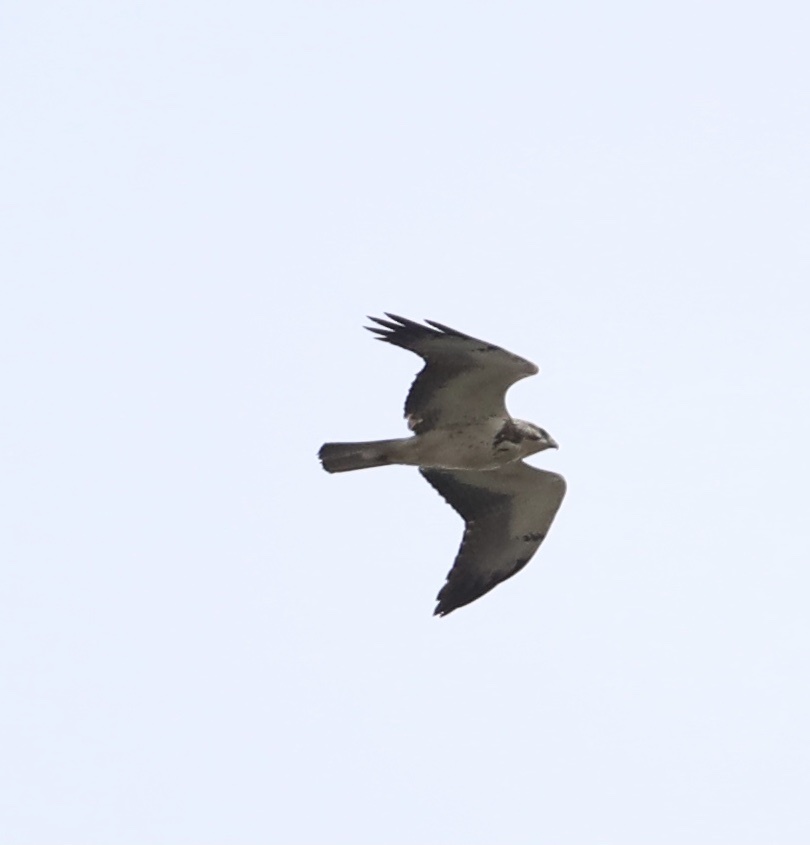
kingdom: Animalia
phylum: Chordata
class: Aves
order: Accipitriformes
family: Accipitridae
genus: Buteo
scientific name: Buteo swainsoni
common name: Swainson's hawk
